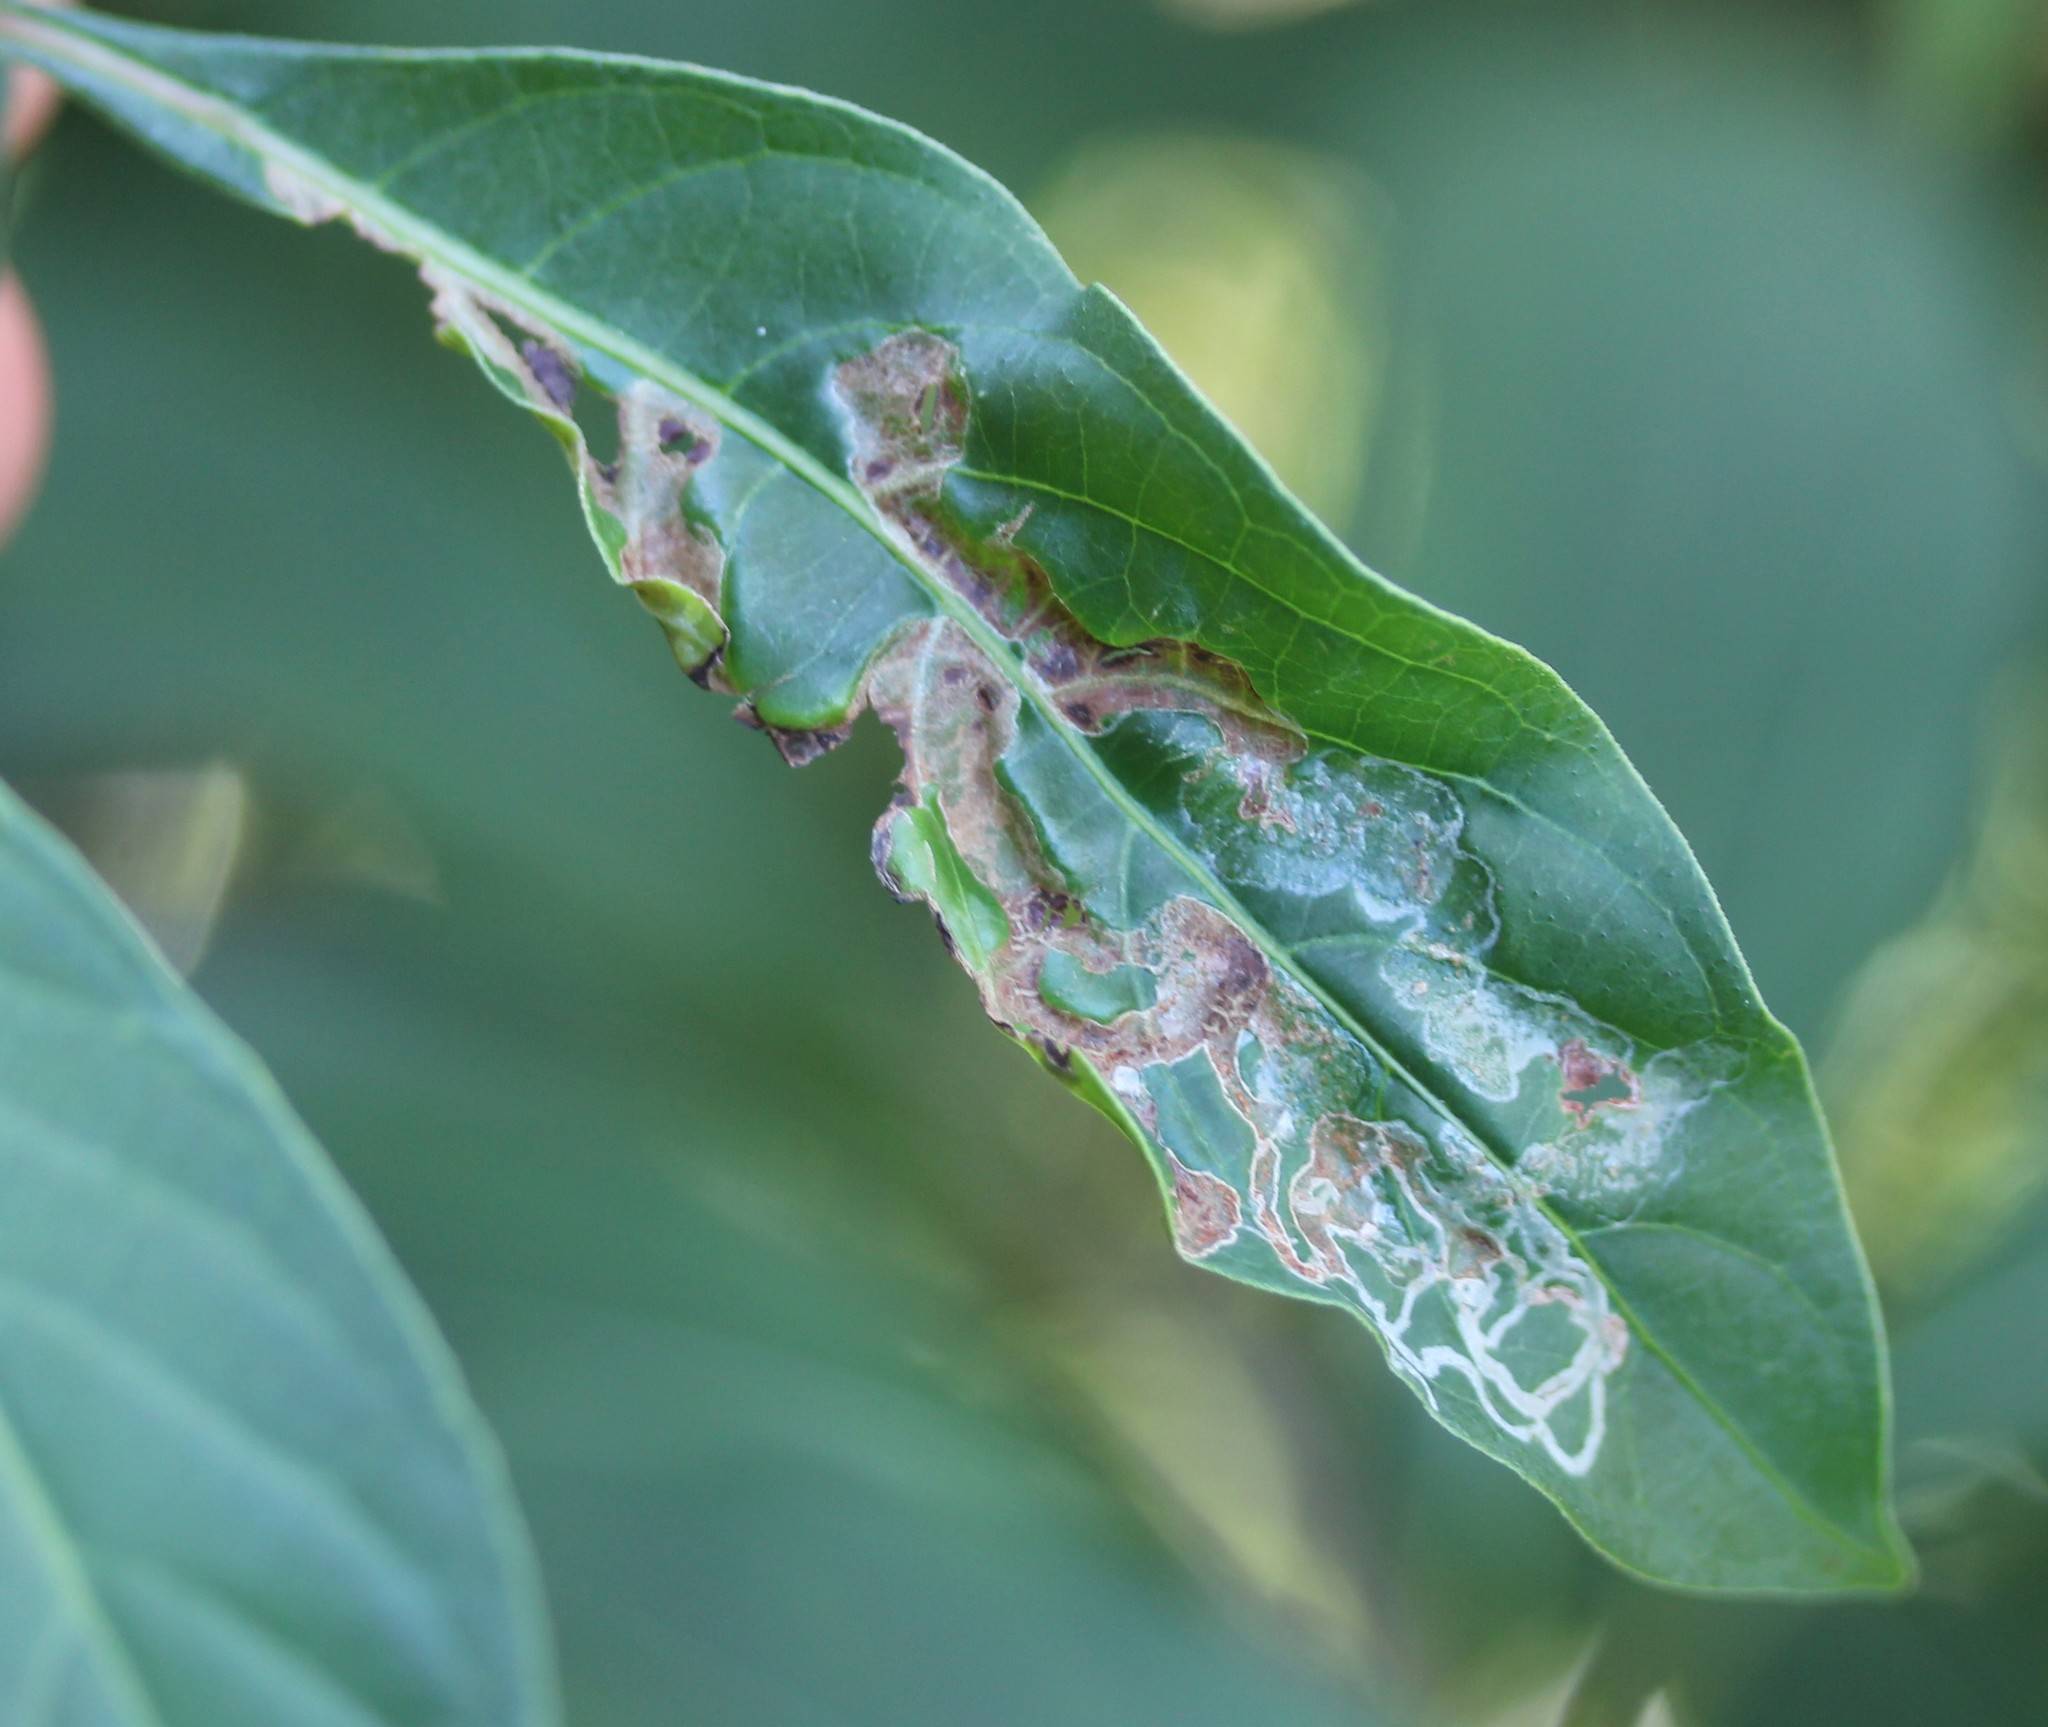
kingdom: Animalia
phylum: Arthropoda
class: Insecta
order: Diptera
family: Agromyzidae
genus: Liriomyza
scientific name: Liriomyza schmidti
